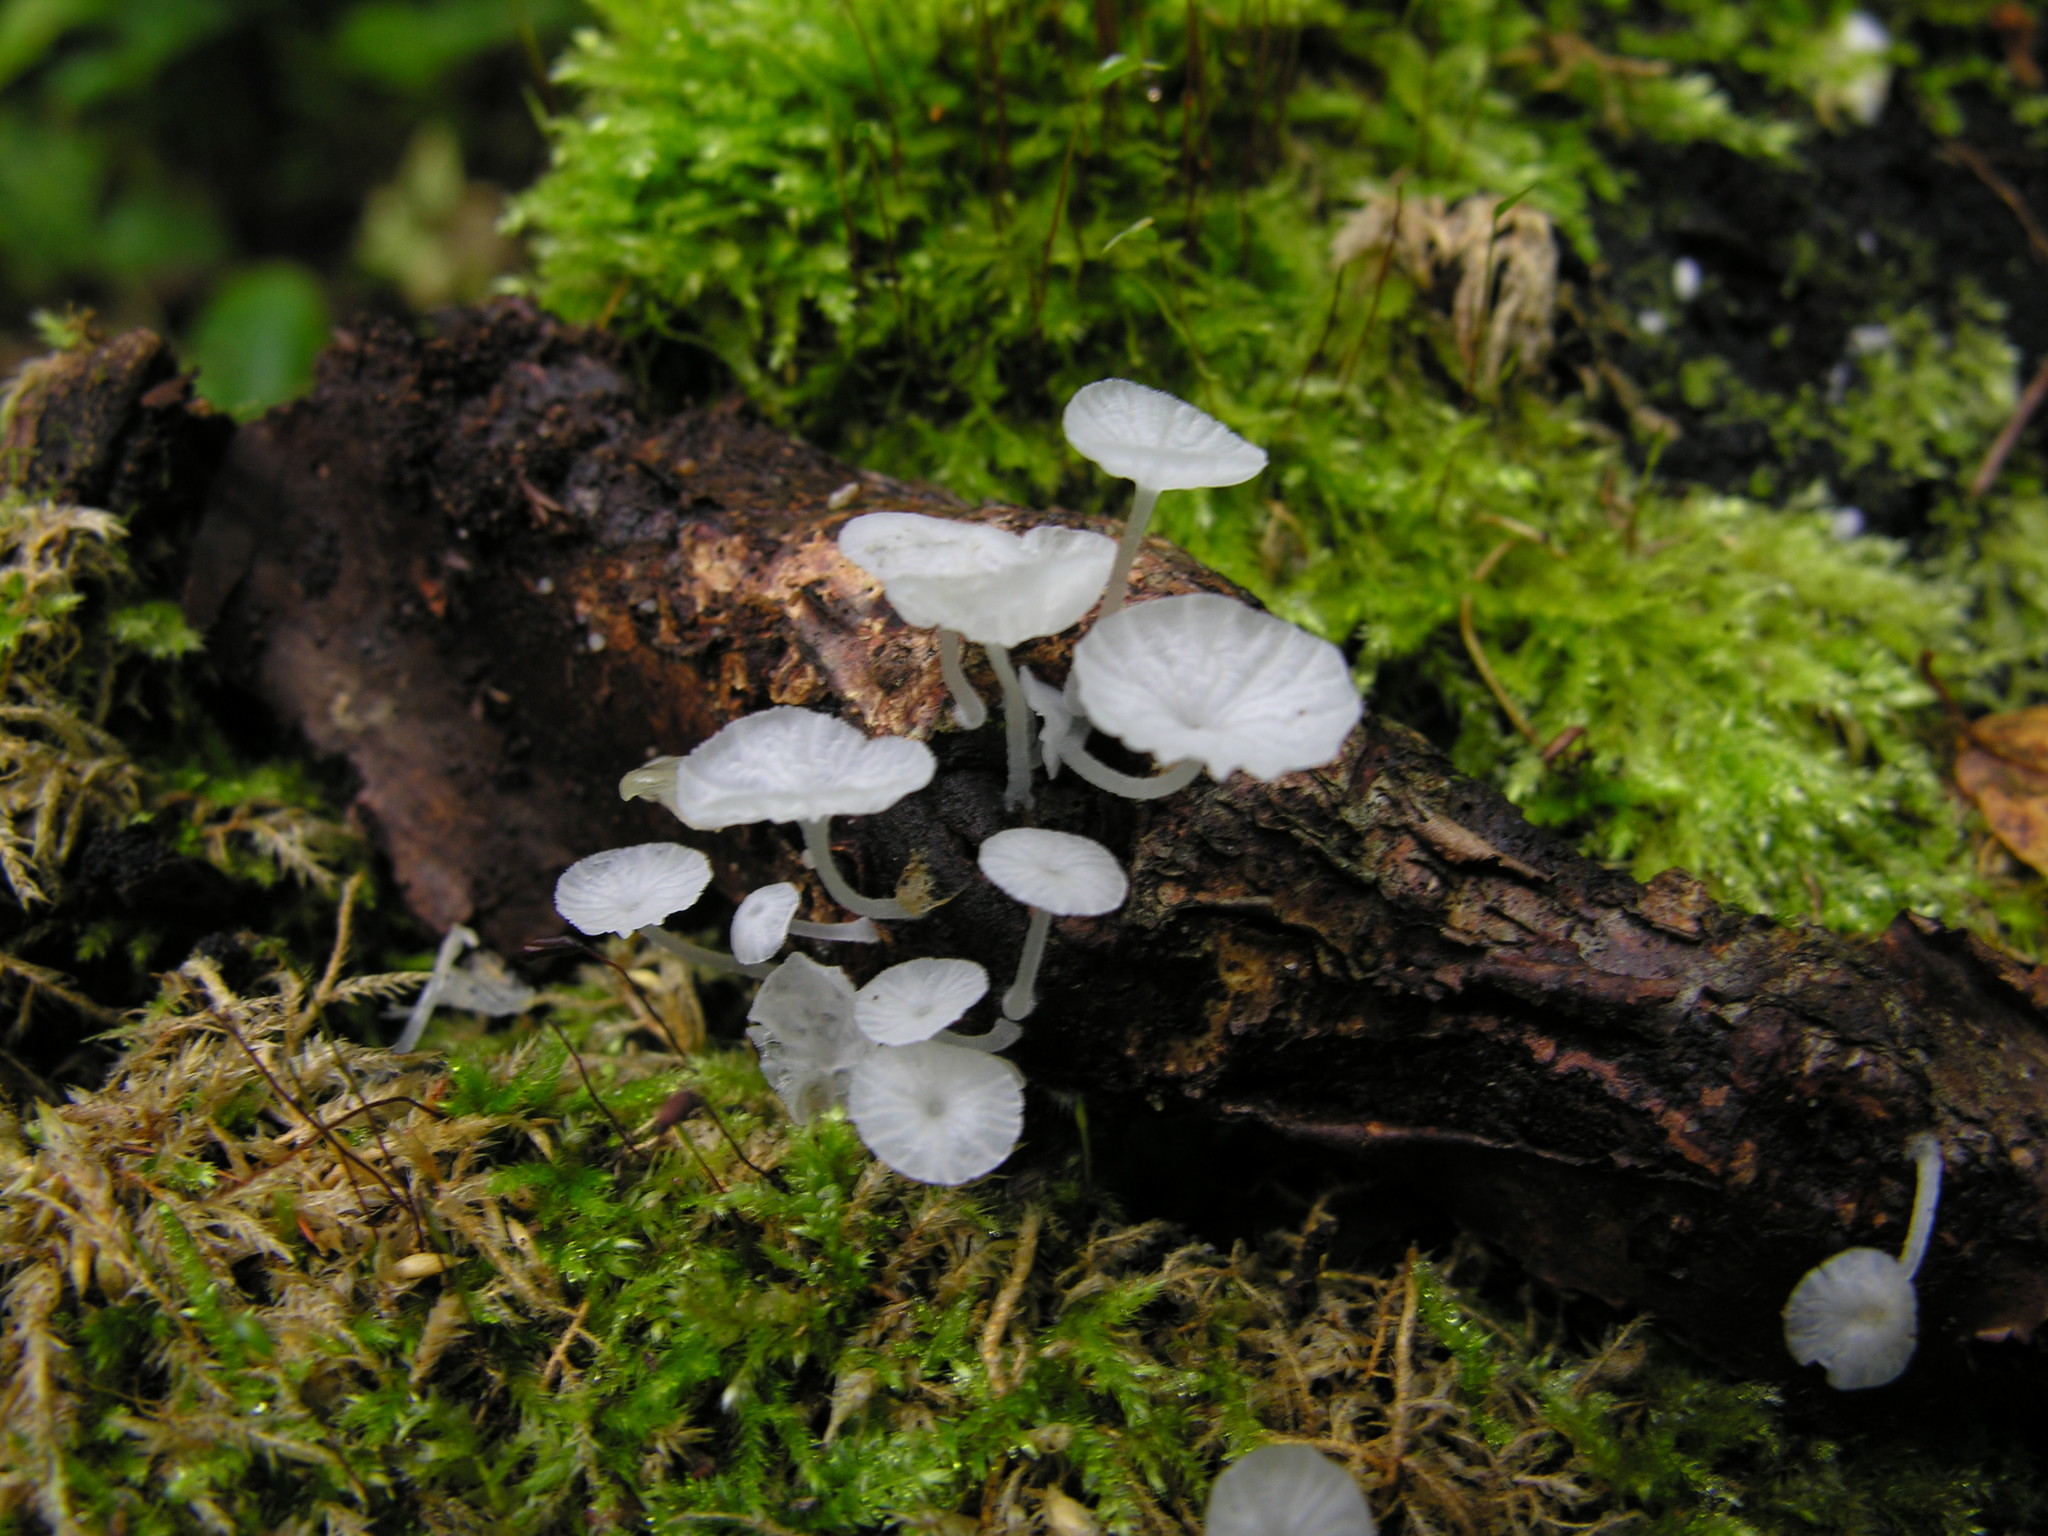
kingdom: Fungi
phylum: Basidiomycota
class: Agaricomycetes
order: Agaricales
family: Tricholomataceae
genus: Delicatula
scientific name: Delicatula integrella
